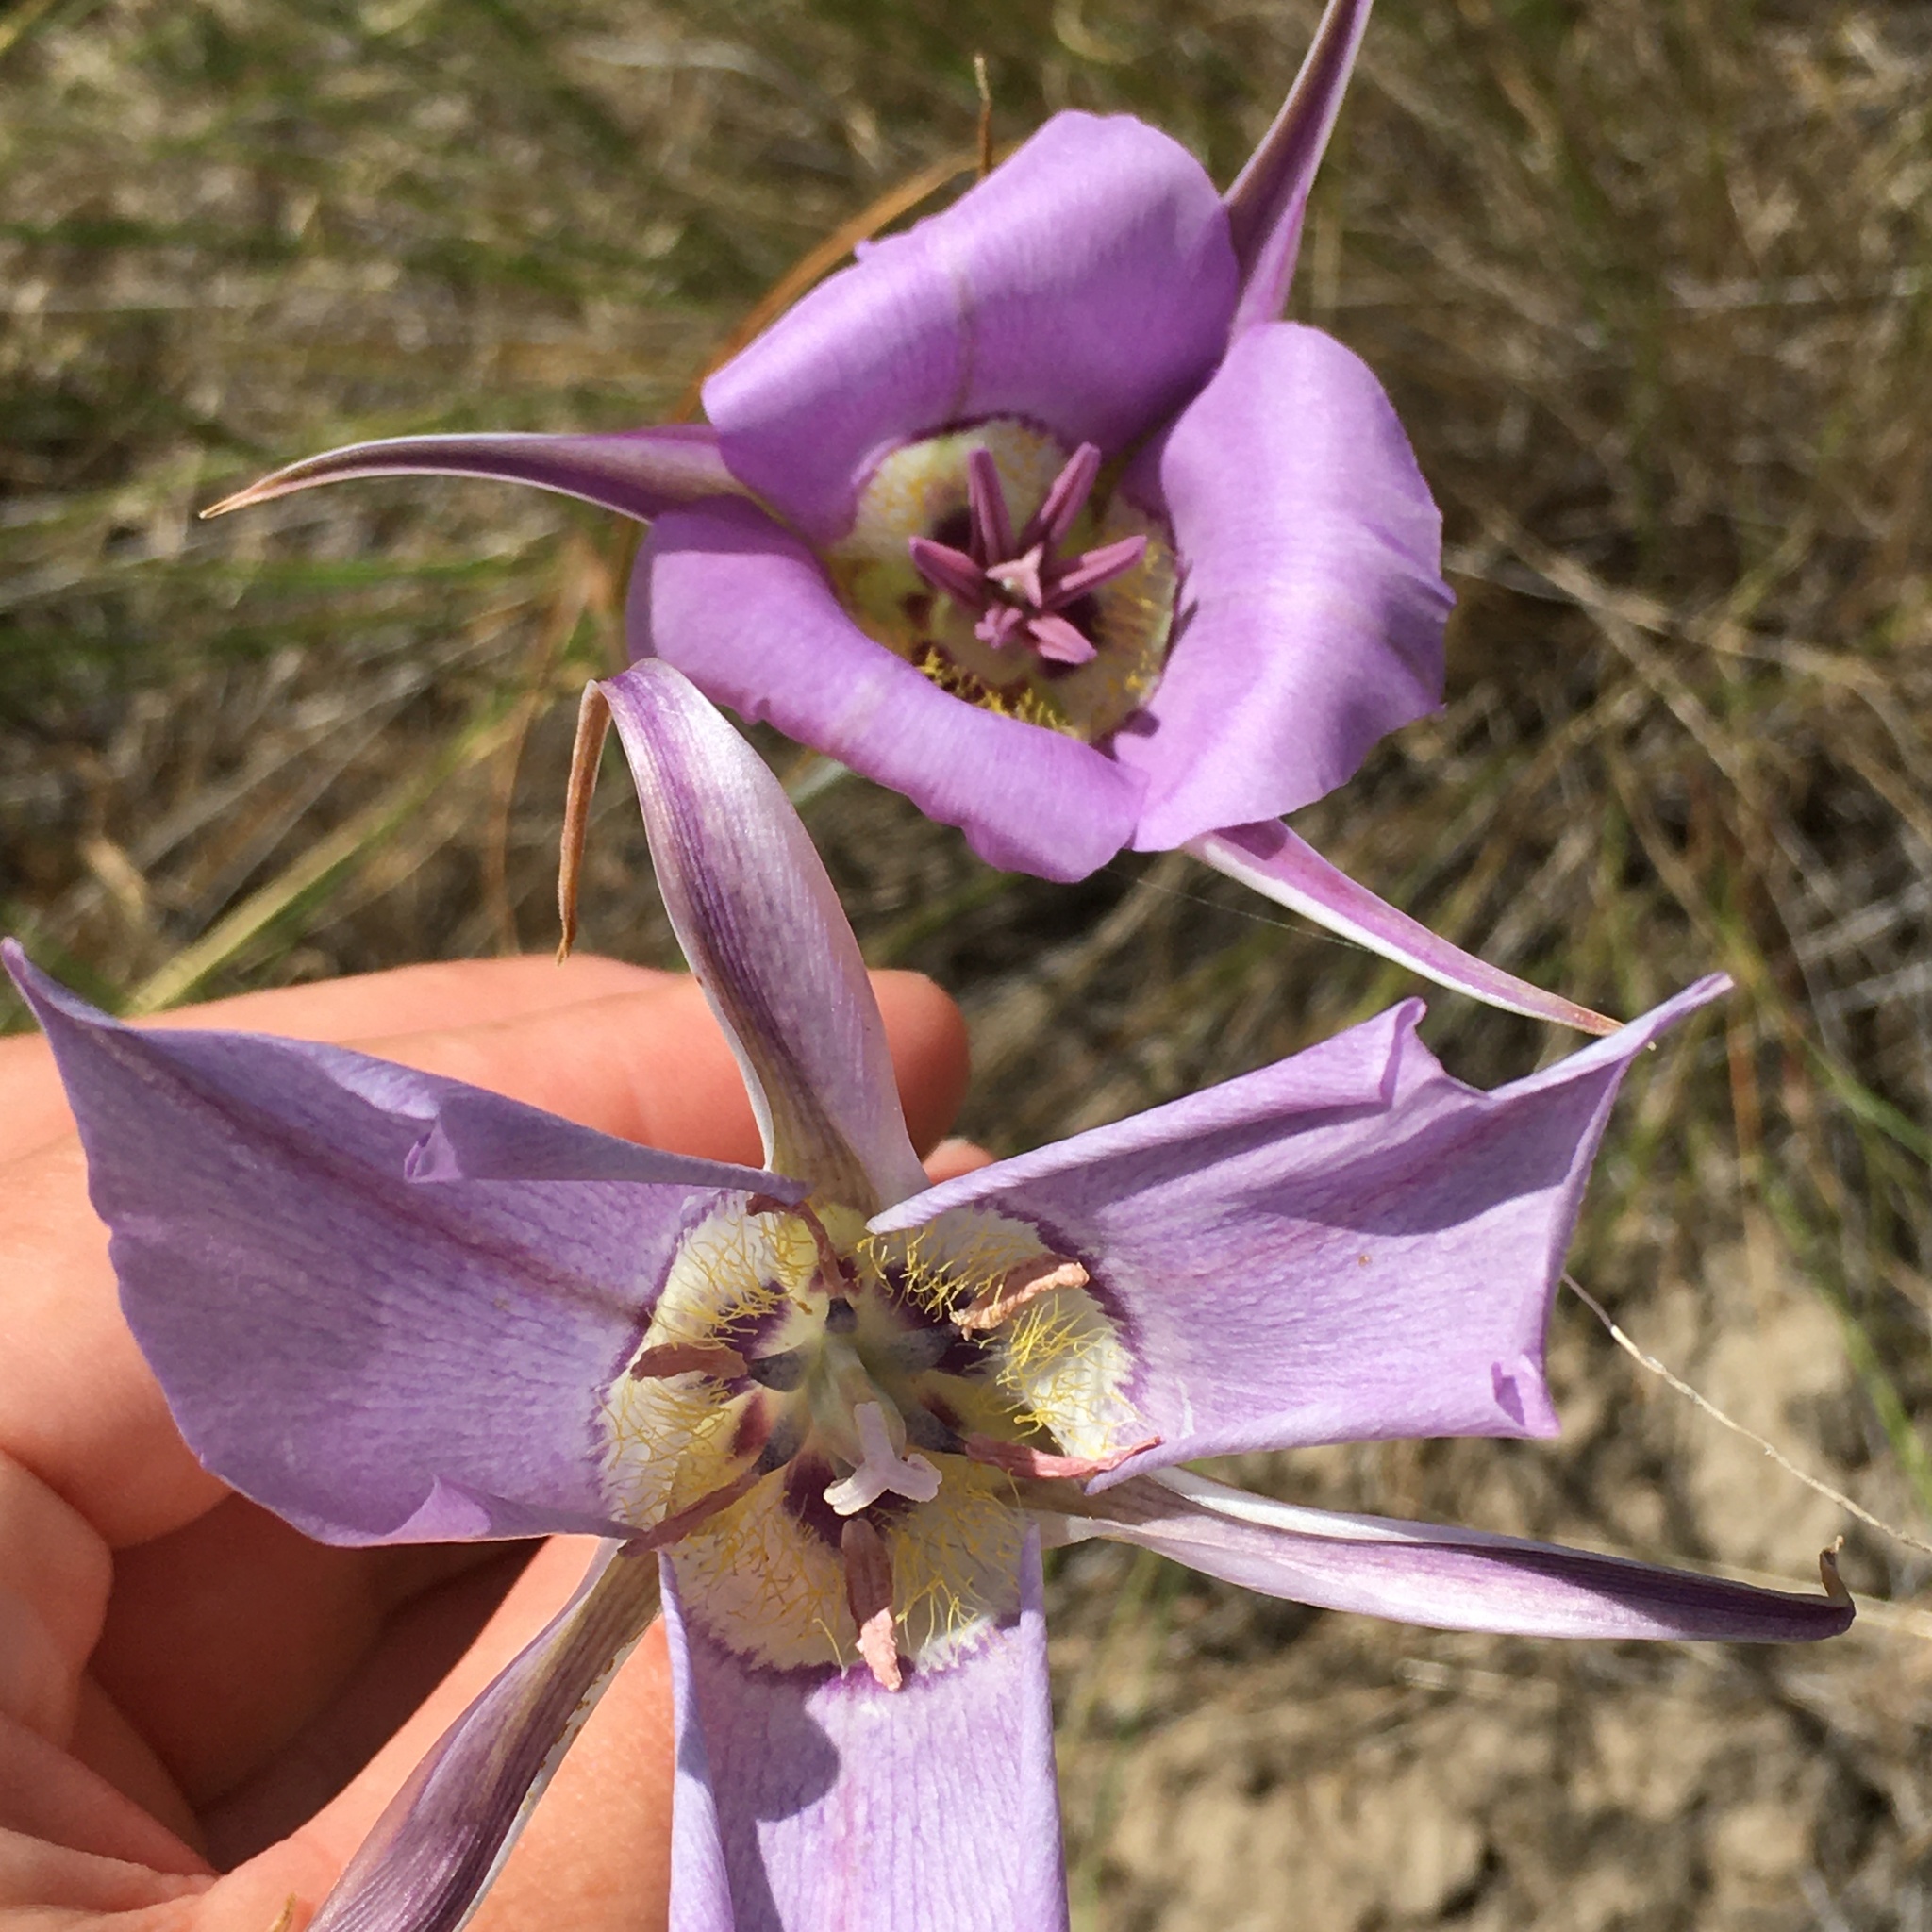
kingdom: Plantae
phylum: Tracheophyta
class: Liliopsida
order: Liliales
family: Liliaceae
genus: Calochortus
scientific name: Calochortus macrocarpus
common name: Green-band mariposa lily
